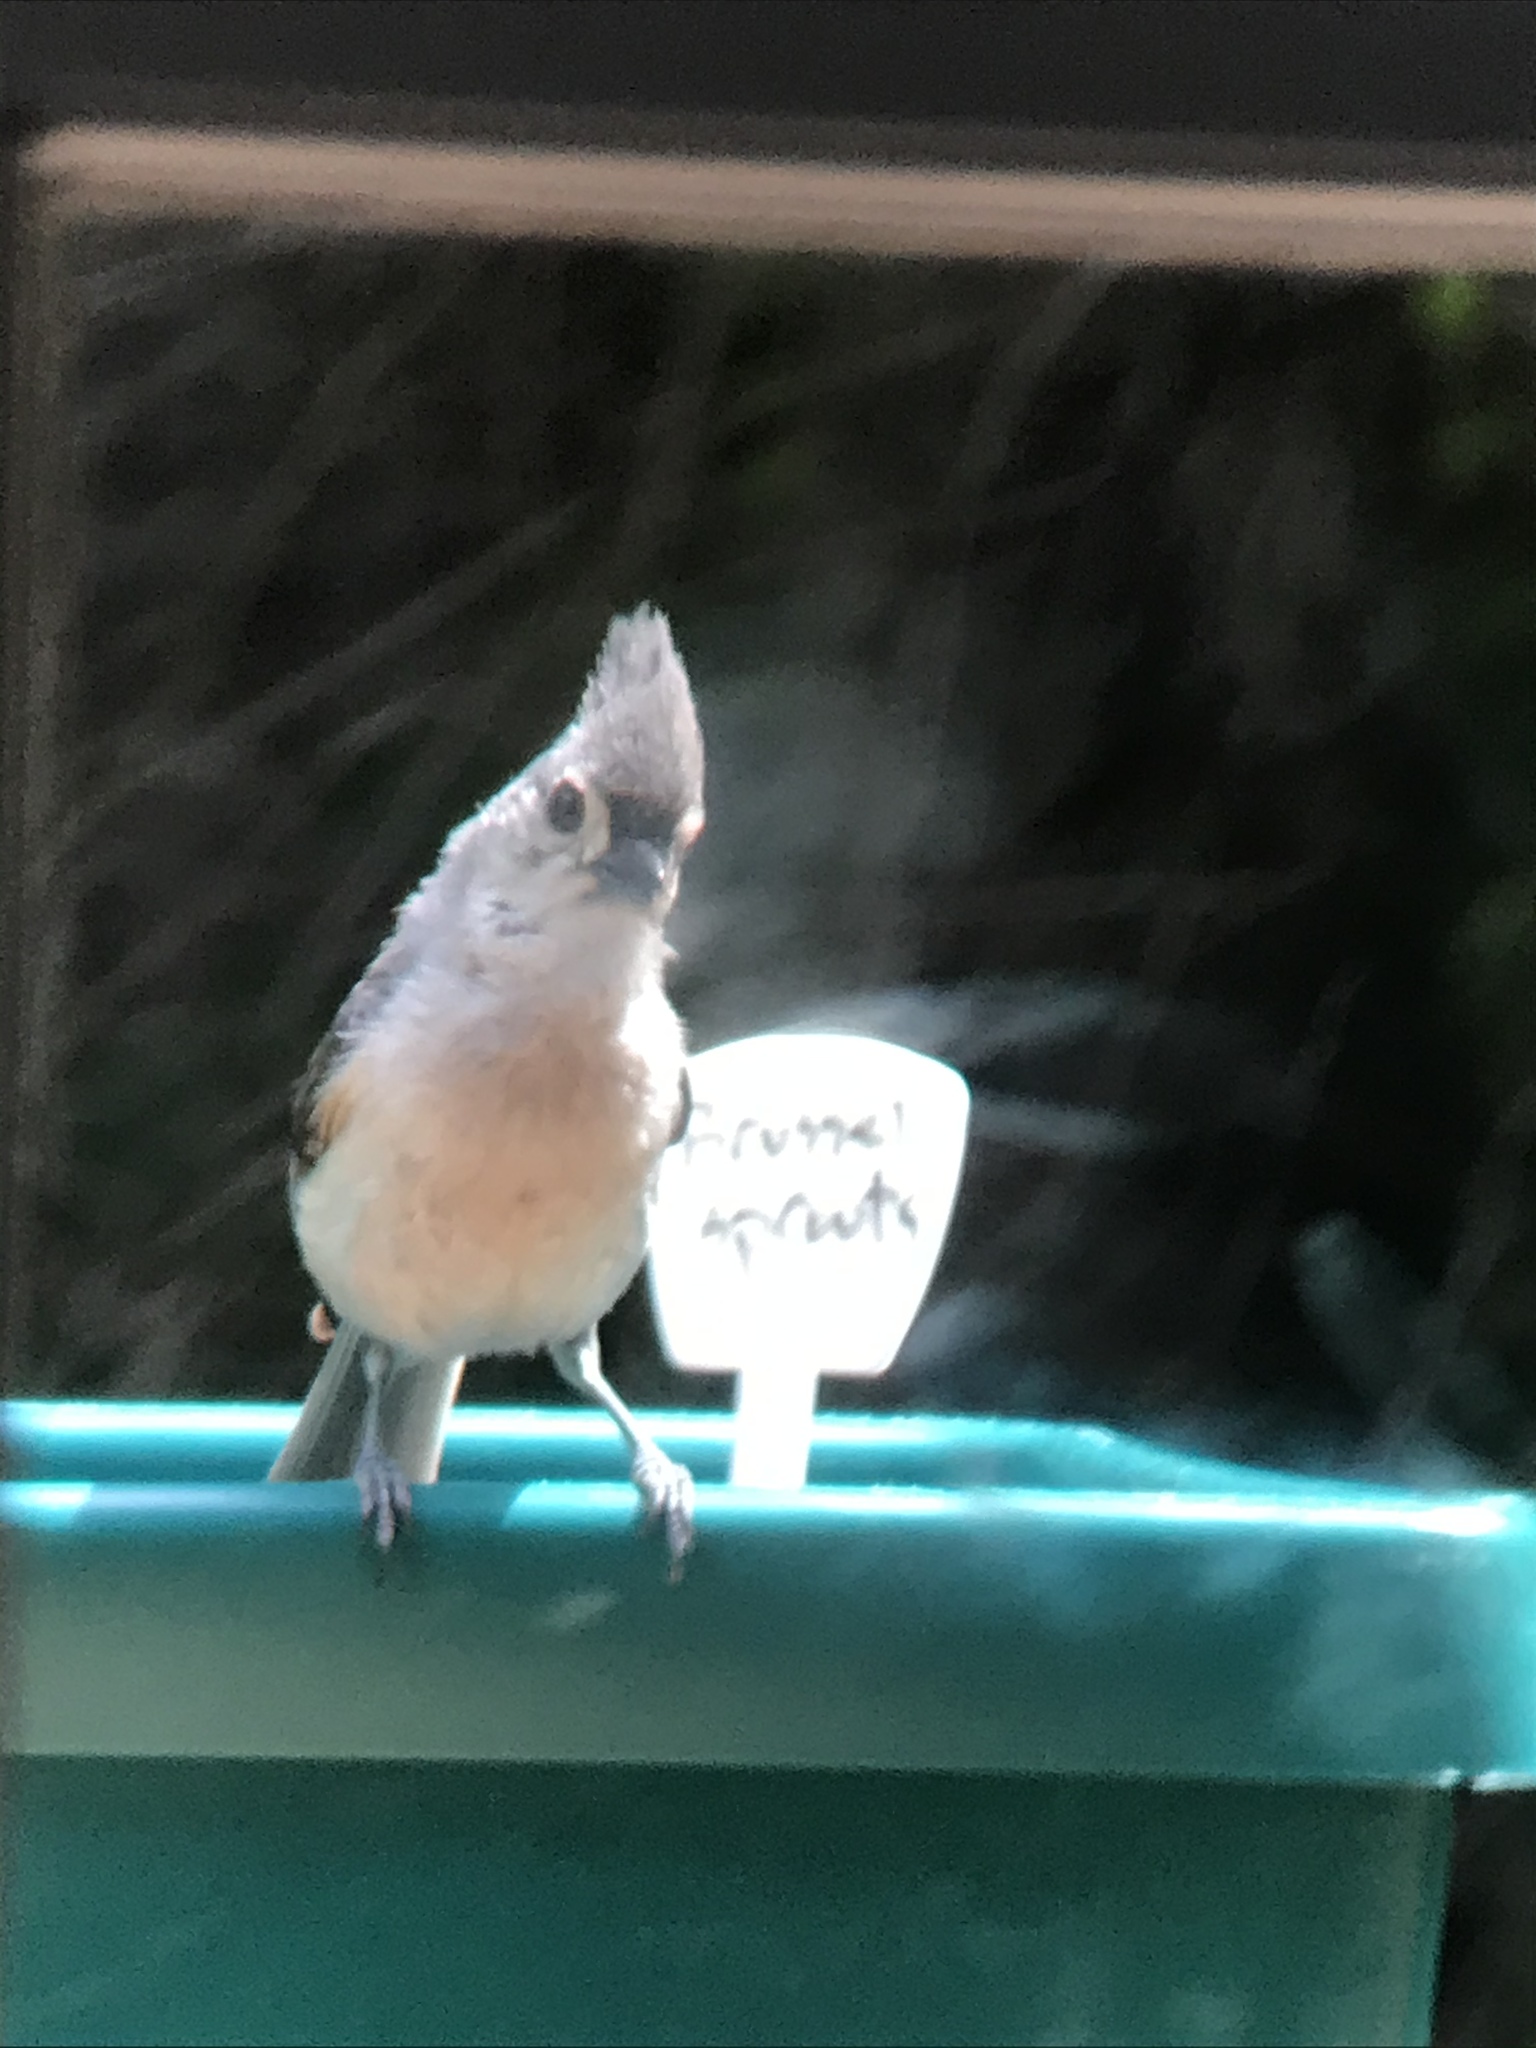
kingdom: Animalia
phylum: Chordata
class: Aves
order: Passeriformes
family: Paridae
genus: Baeolophus
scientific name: Baeolophus bicolor
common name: Tufted titmouse
